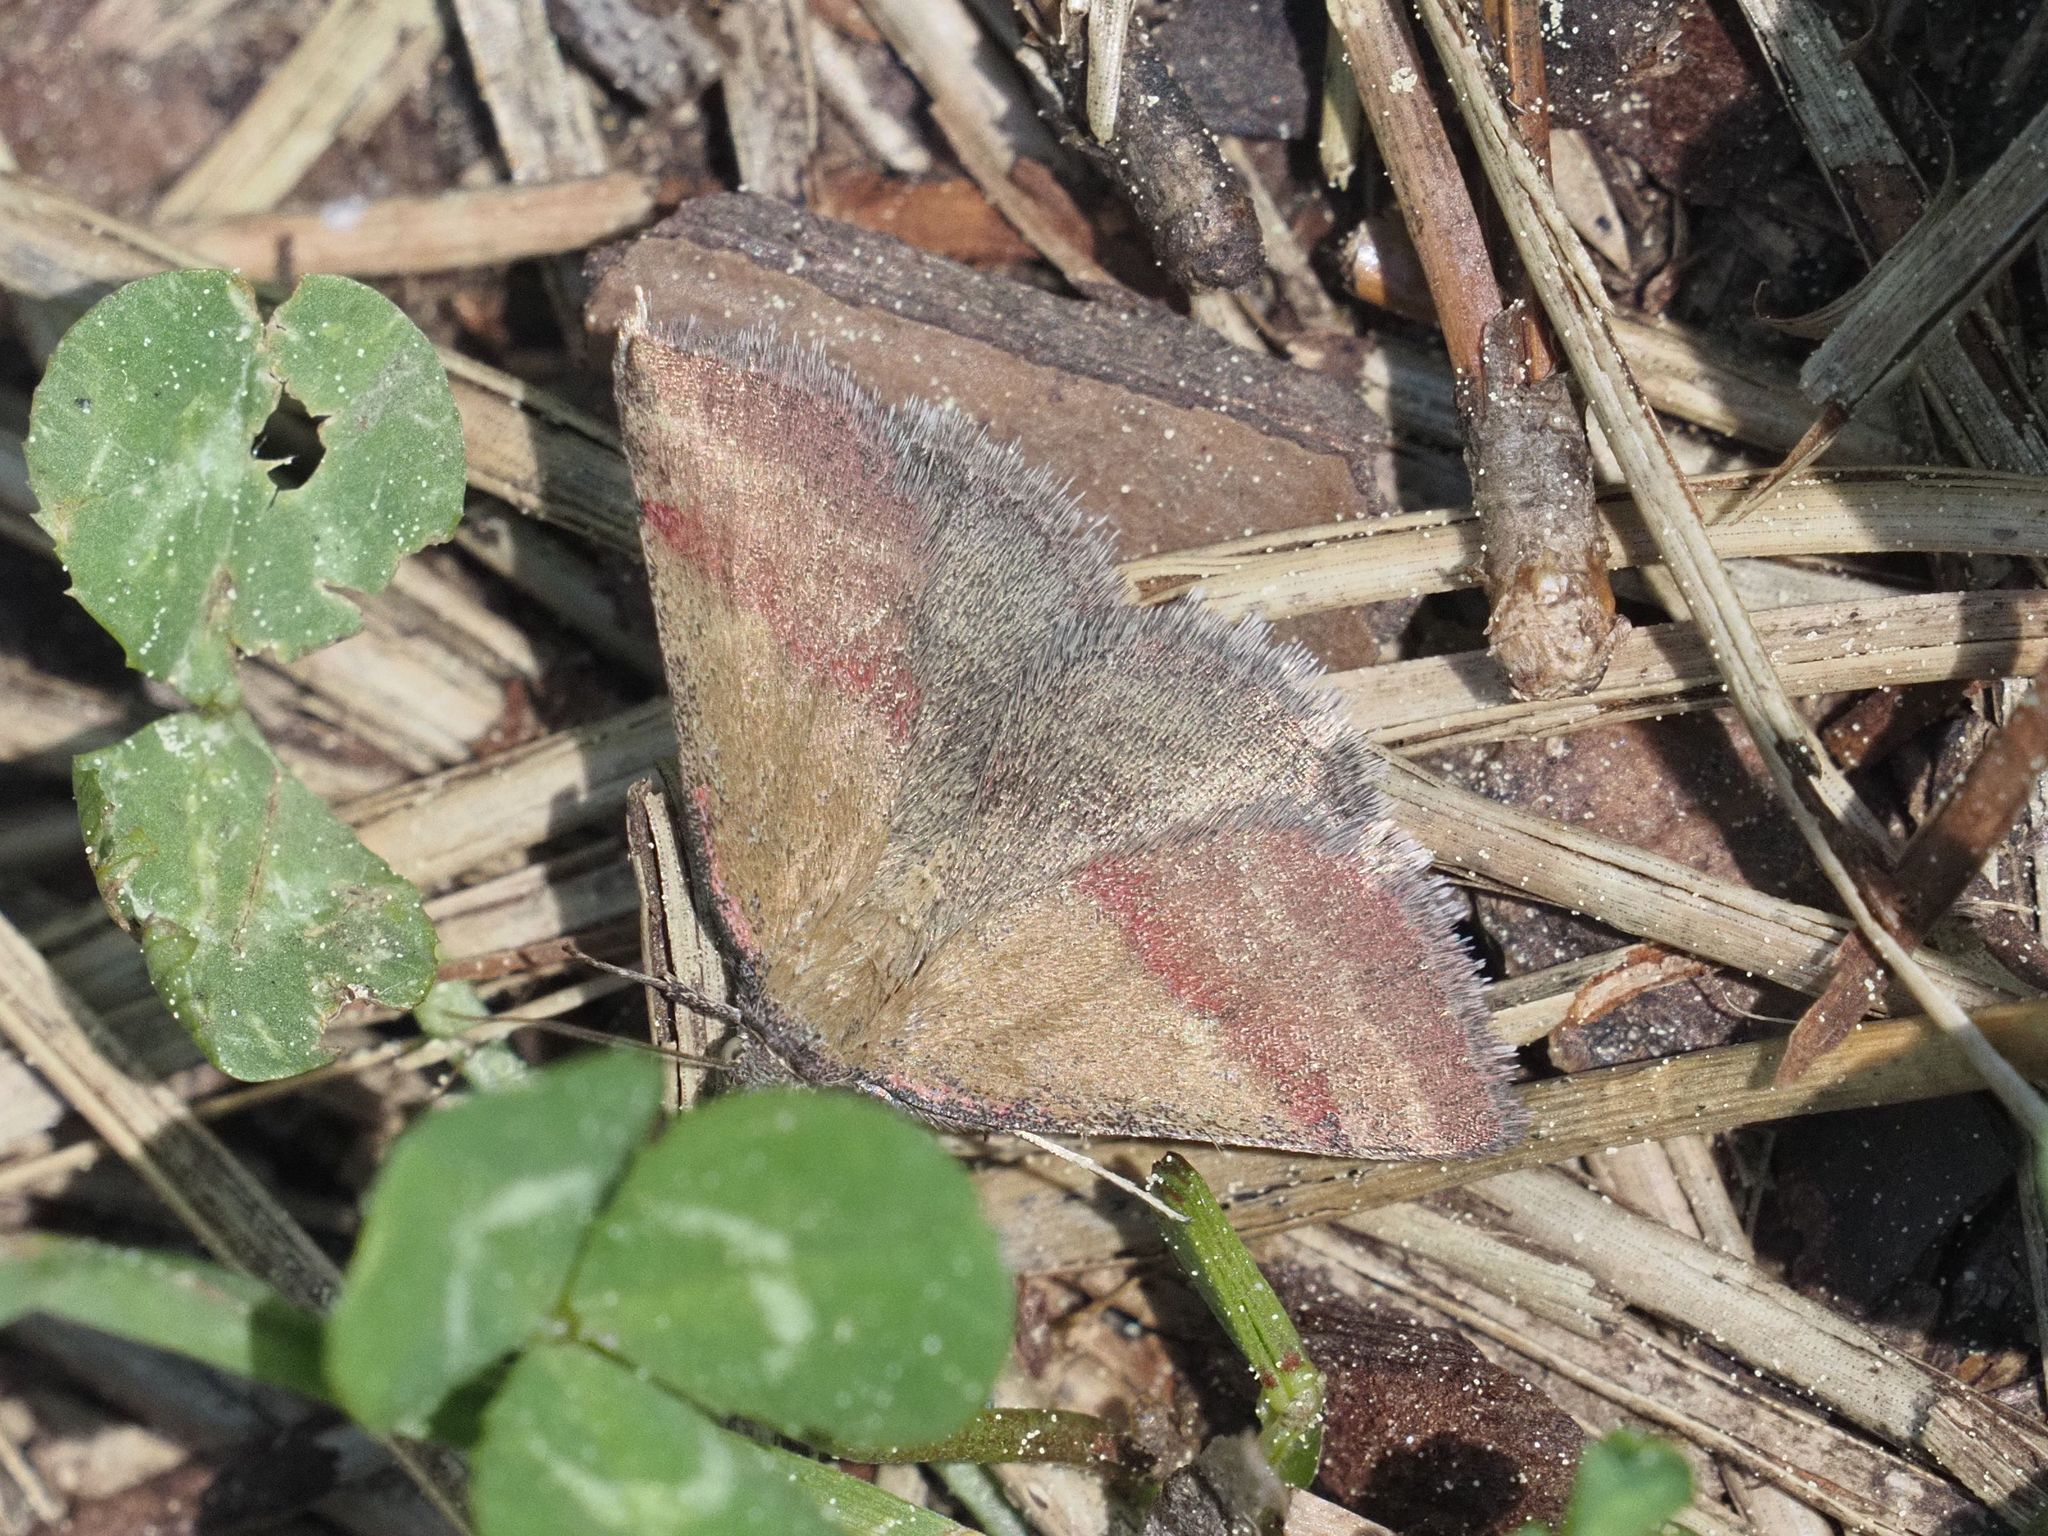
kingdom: Animalia
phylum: Arthropoda
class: Insecta
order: Lepidoptera
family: Erebidae
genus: Phytometra
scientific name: Phytometra viridaria
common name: Small purple-barred
